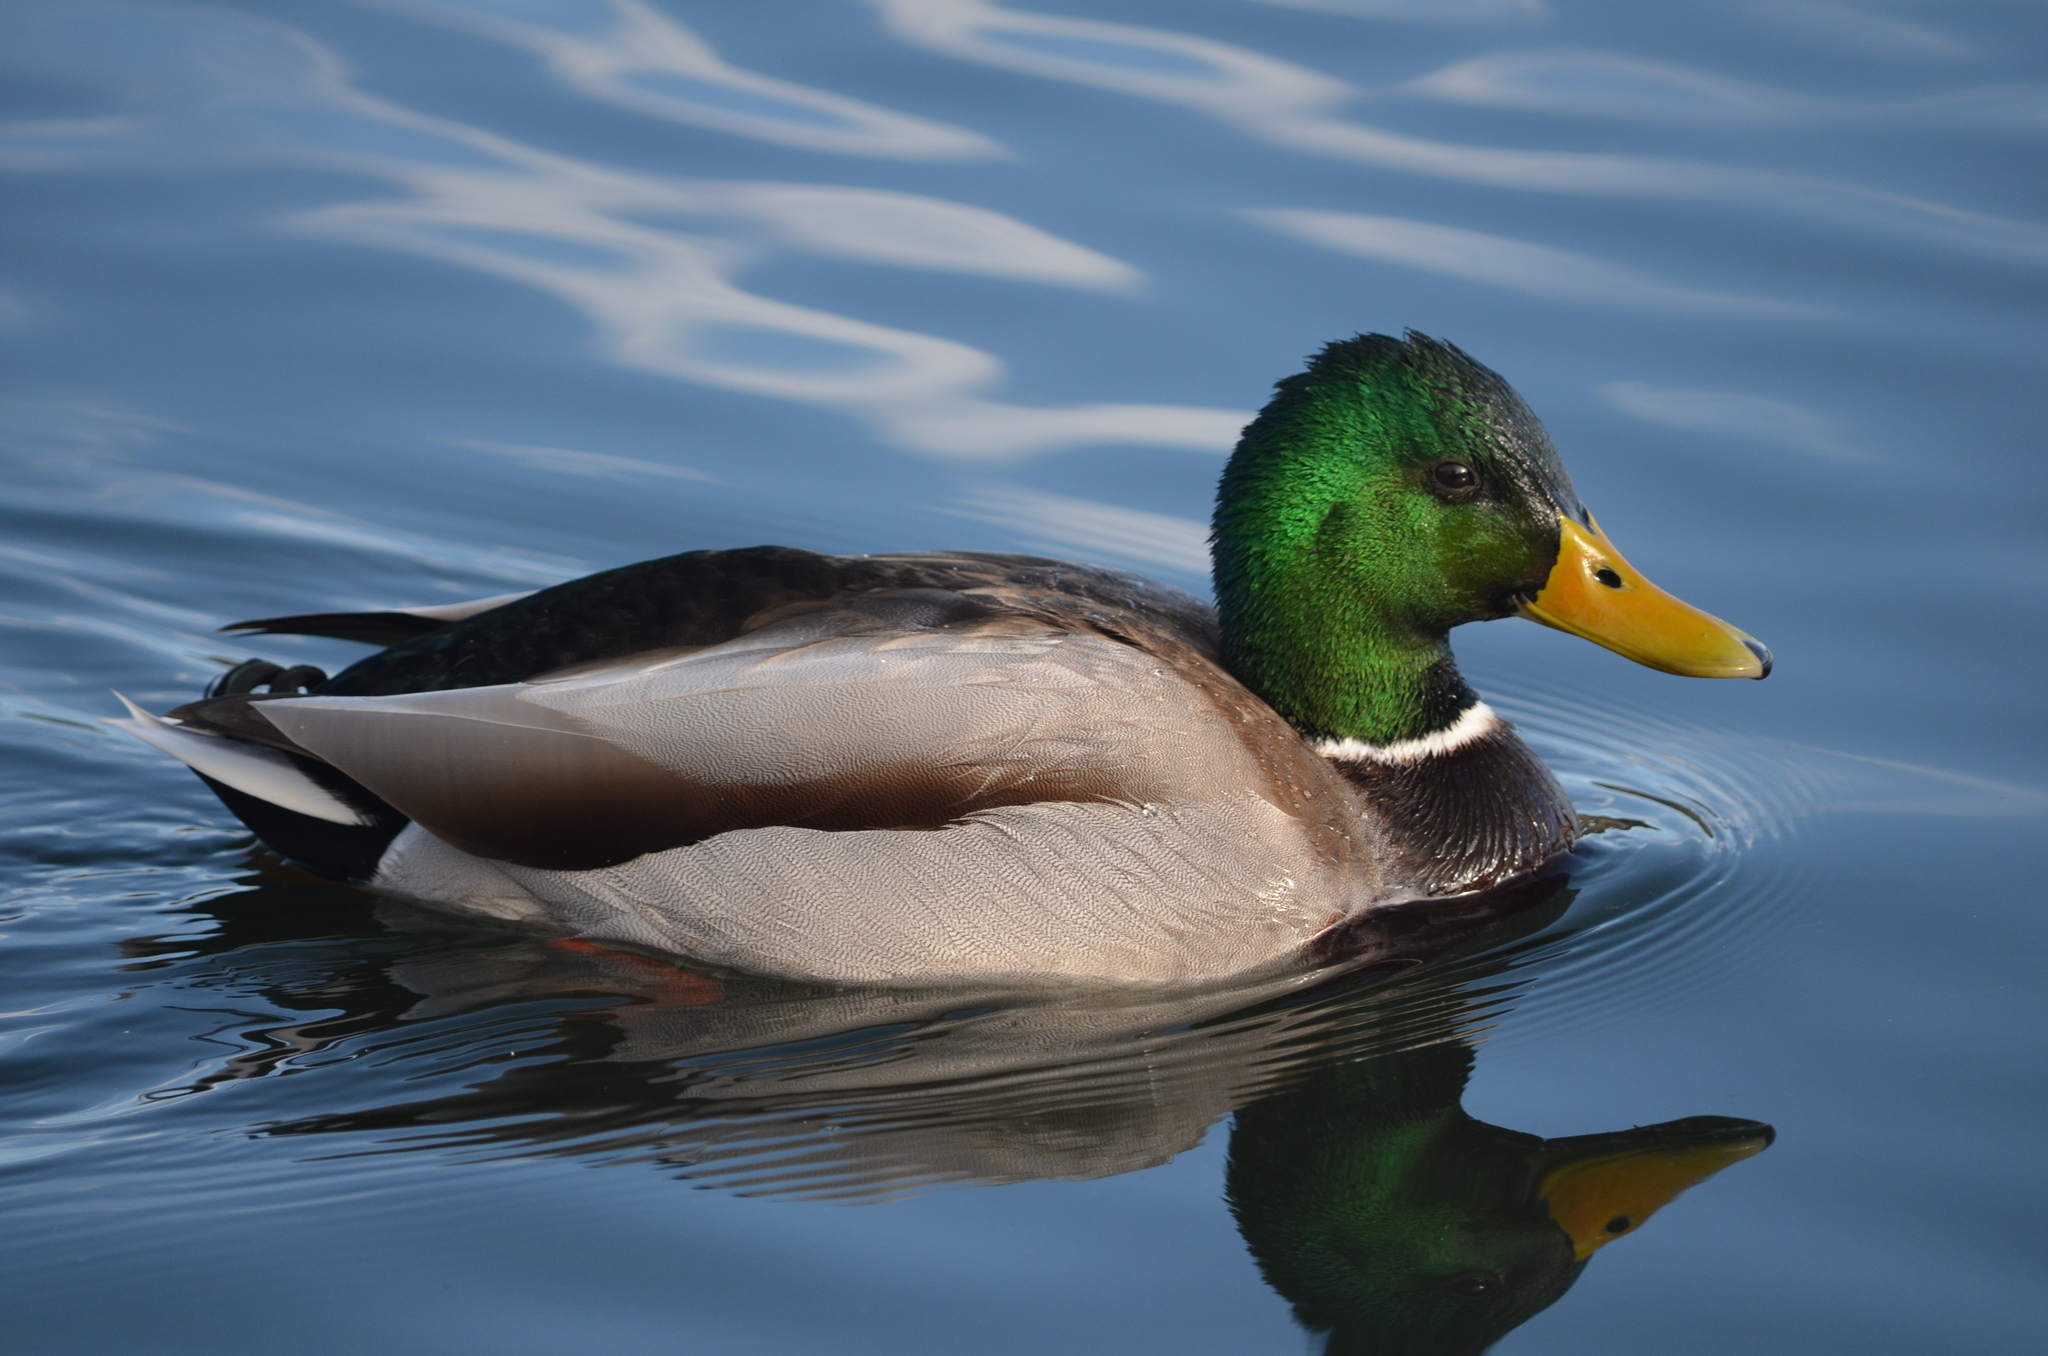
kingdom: Animalia
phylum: Chordata
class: Aves
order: Anseriformes
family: Anatidae
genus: Anas
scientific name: Anas platyrhynchos
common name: Mallard
